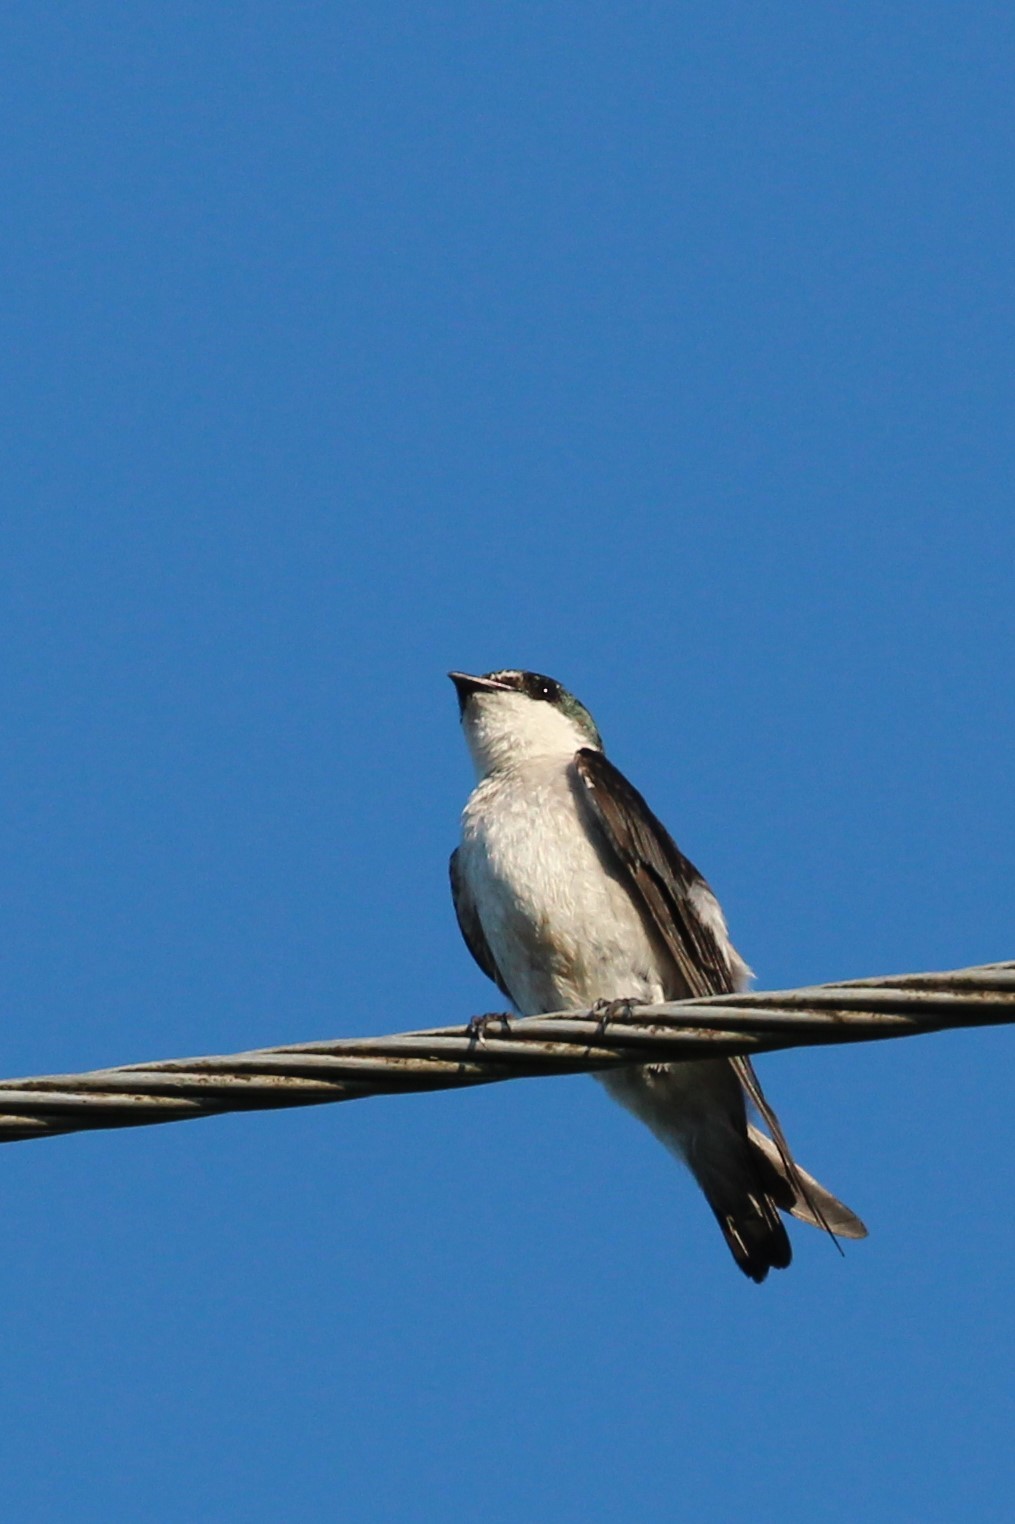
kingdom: Animalia
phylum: Chordata
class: Aves
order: Passeriformes
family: Hirundinidae
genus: Tachycineta
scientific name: Tachycineta albilinea
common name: Mangrove swallow
